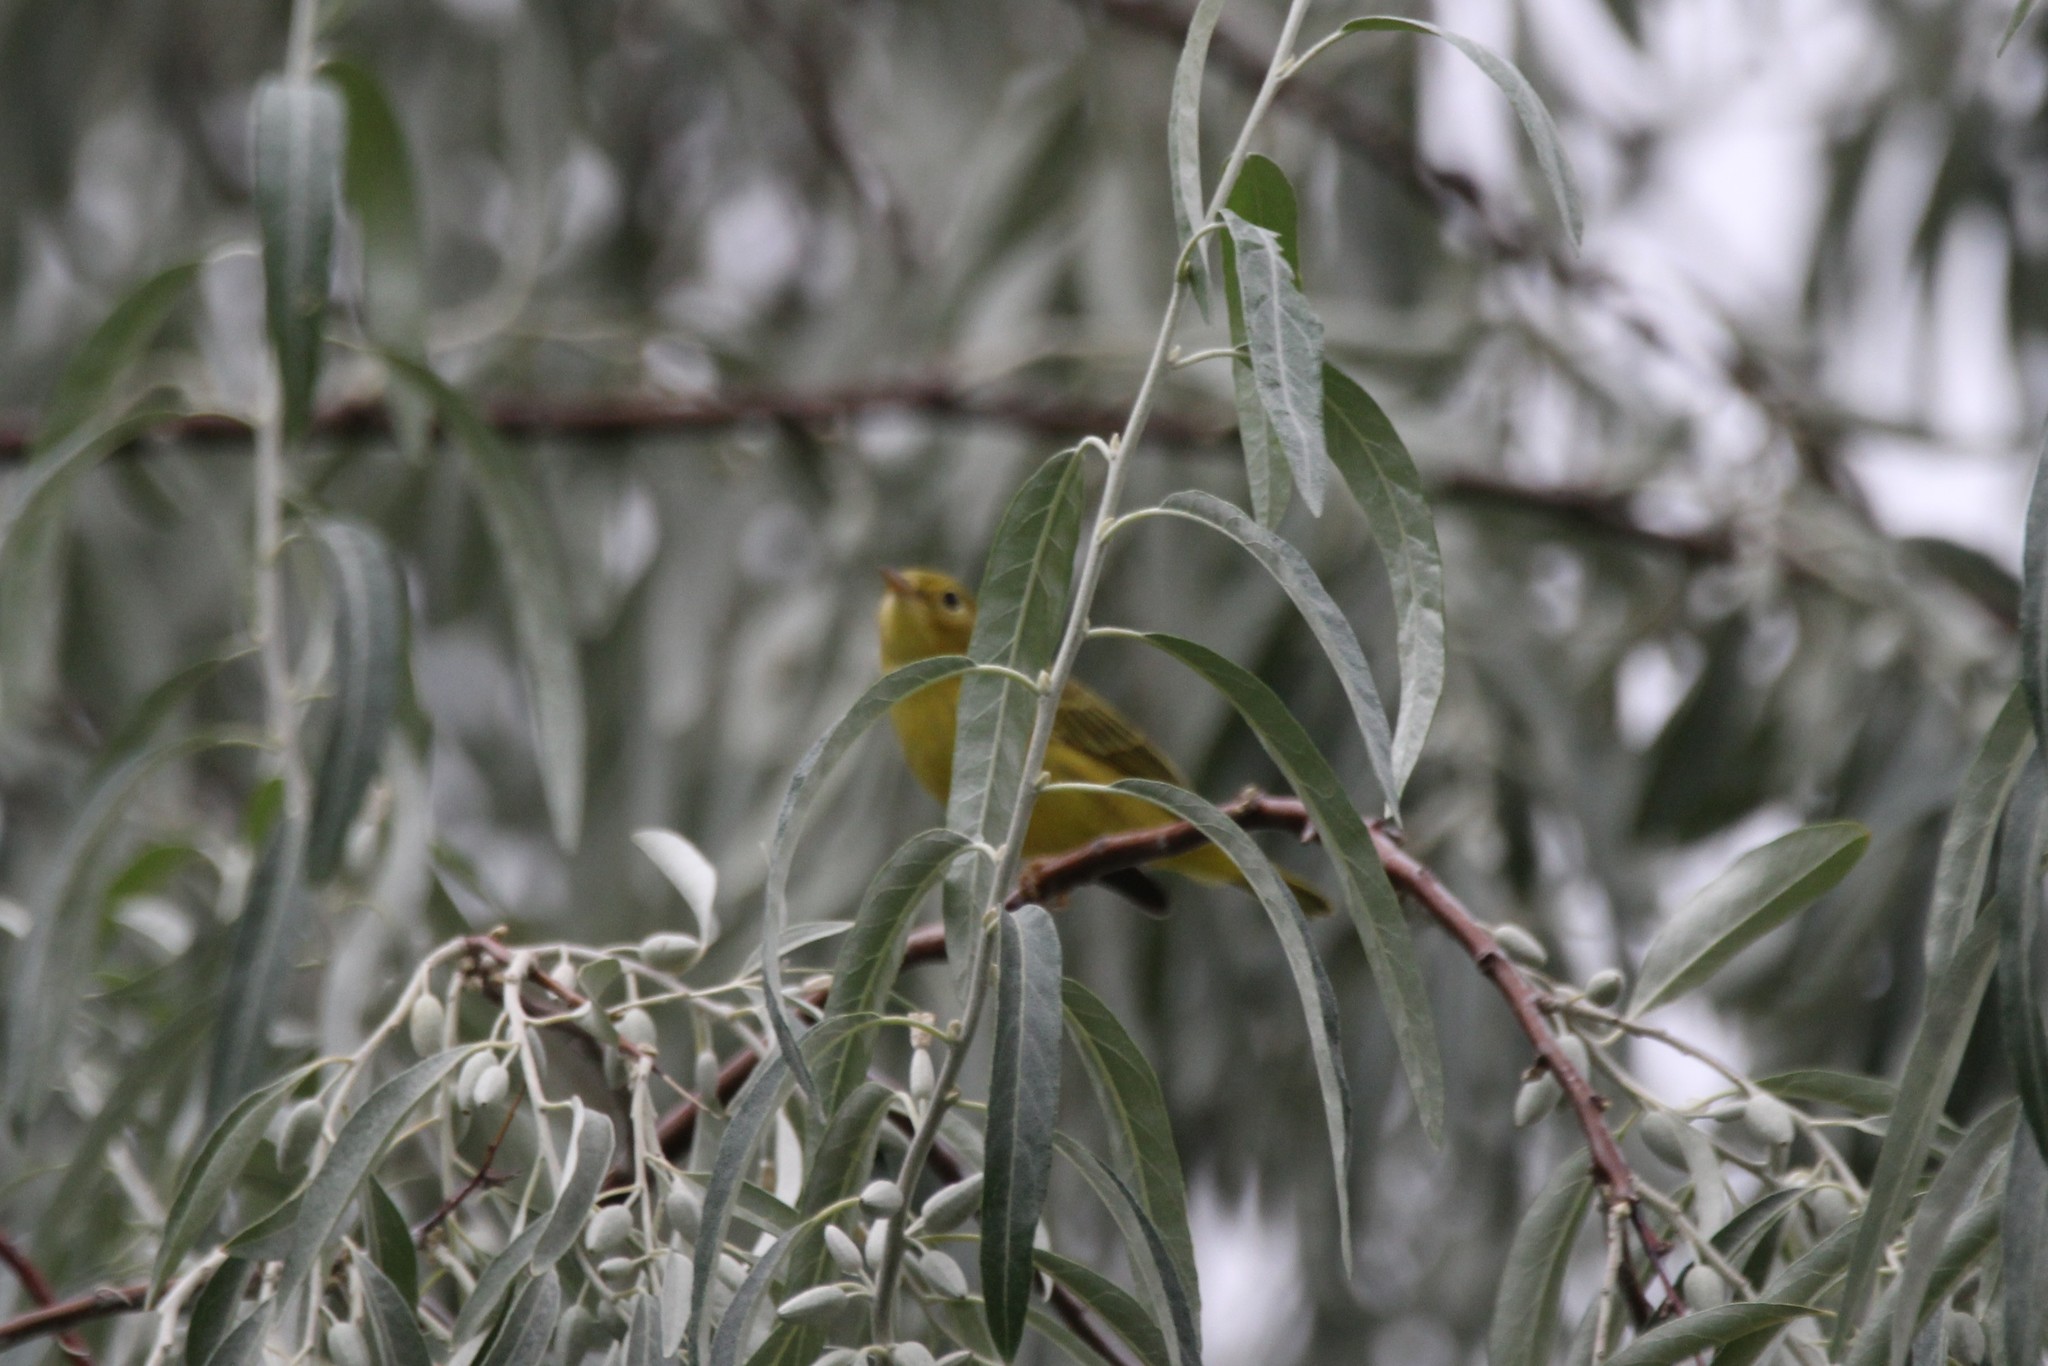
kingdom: Animalia
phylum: Chordata
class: Aves
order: Passeriformes
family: Parulidae
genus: Cardellina
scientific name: Cardellina pusilla
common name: Wilson's warbler
